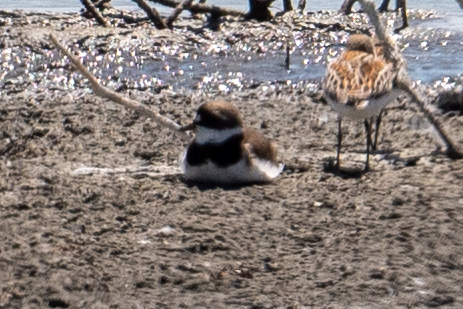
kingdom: Animalia
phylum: Chordata
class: Aves
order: Charadriiformes
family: Charadriidae
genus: Charadrius
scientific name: Charadrius semipalmatus
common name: Semipalmated plover
